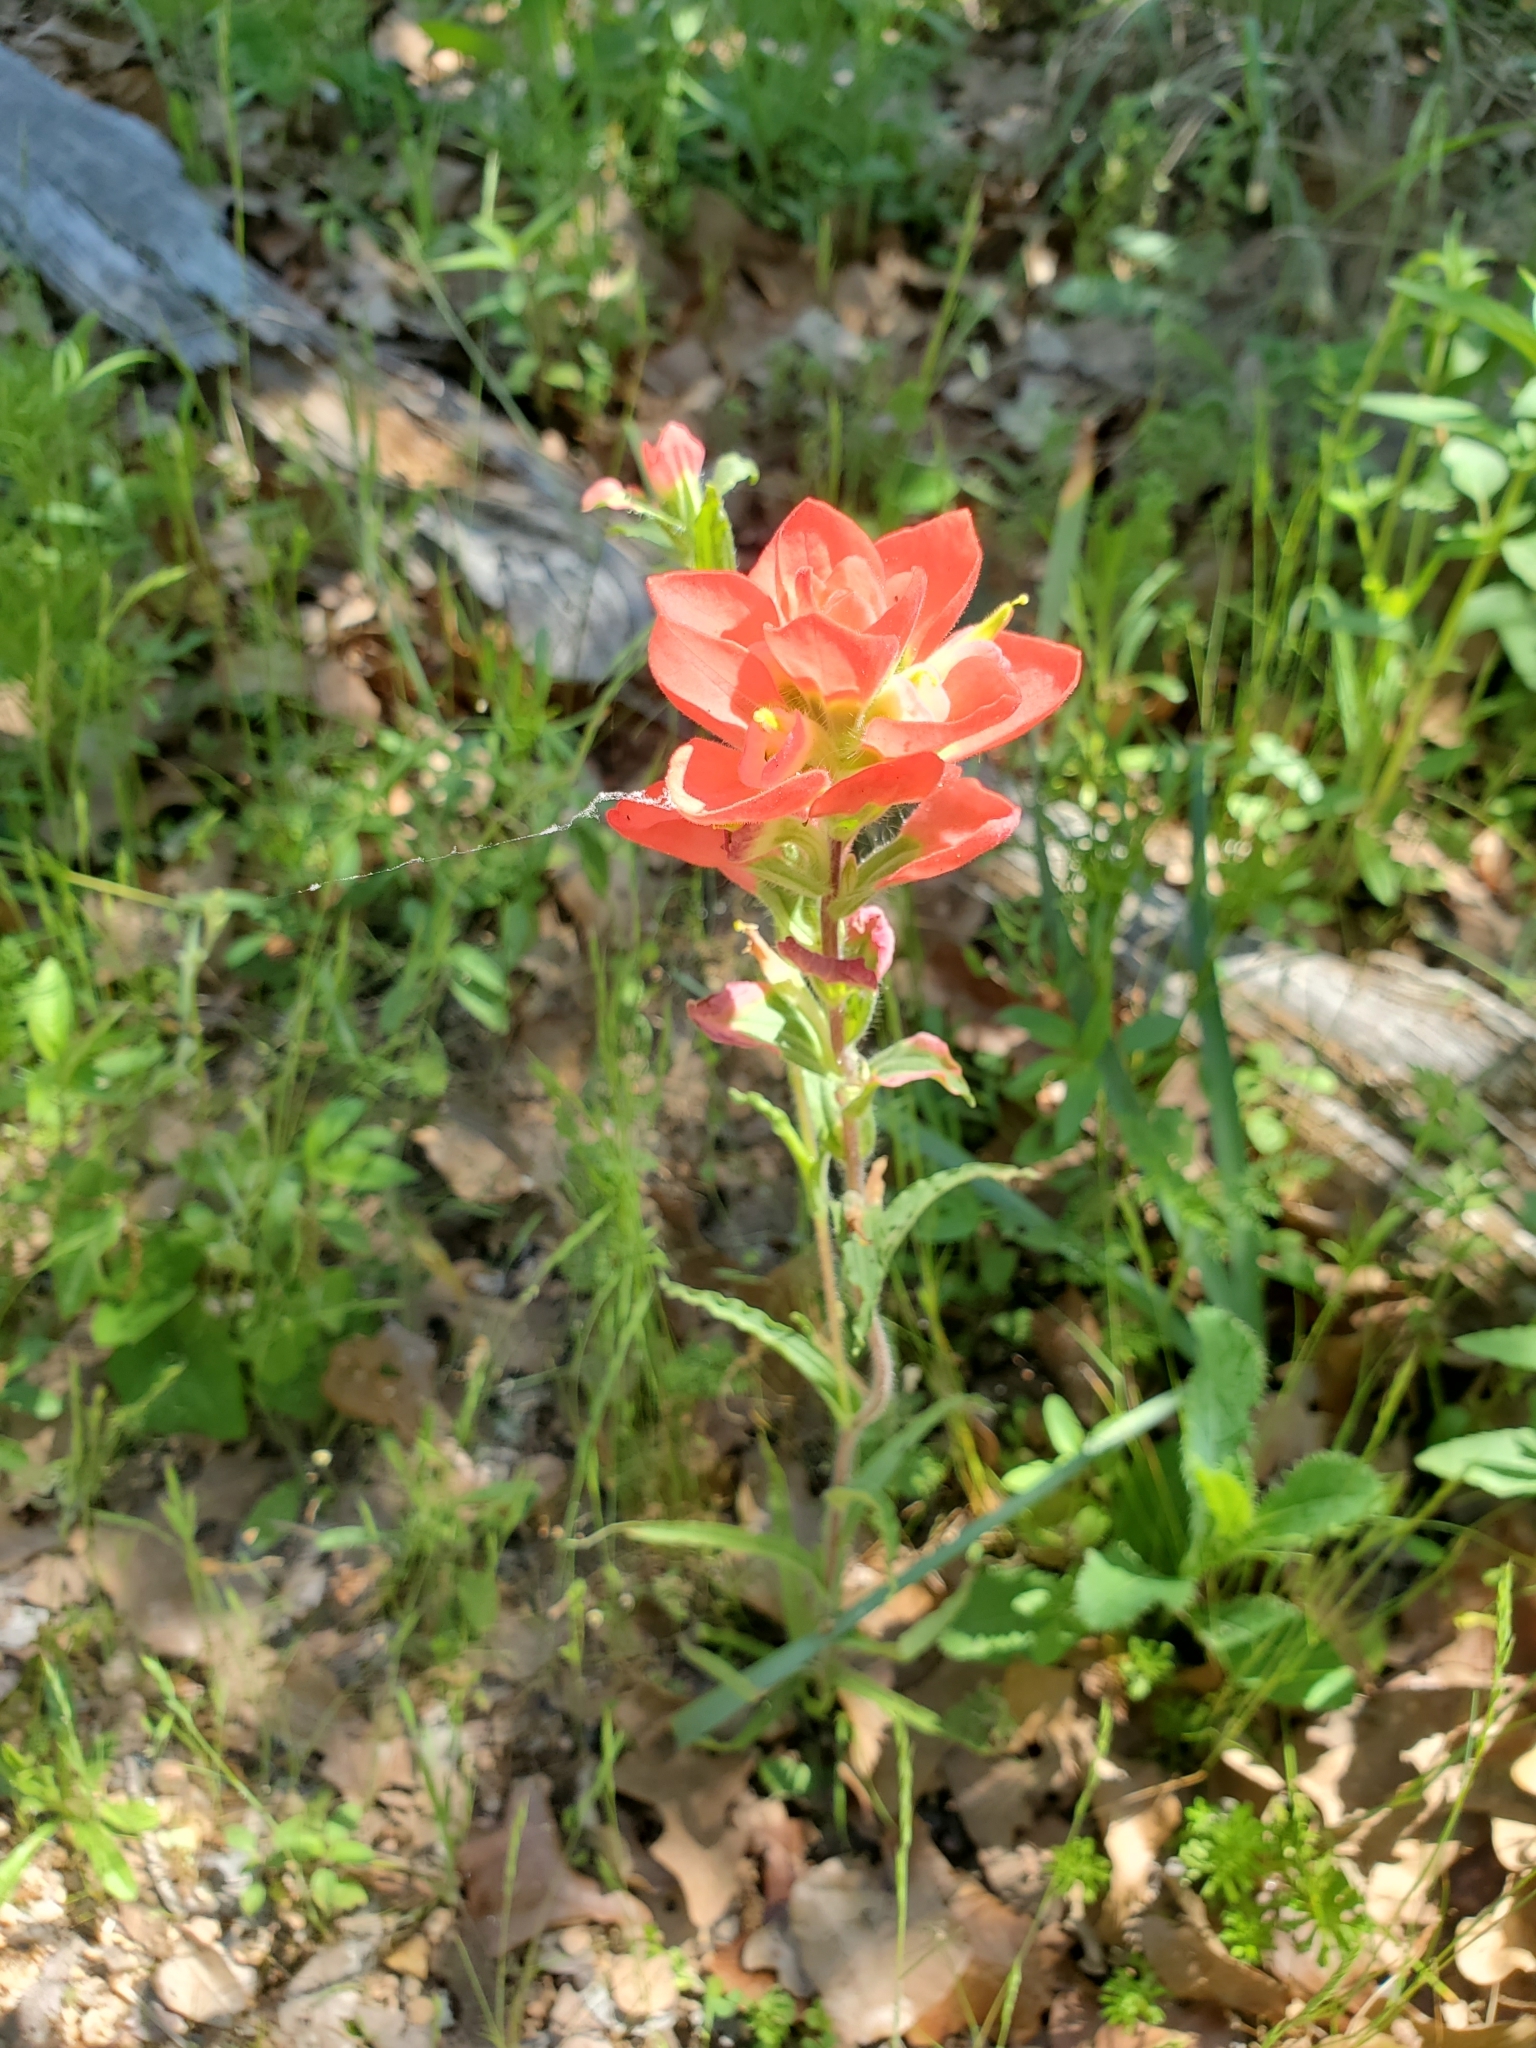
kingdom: Plantae
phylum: Tracheophyta
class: Magnoliopsida
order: Lamiales
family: Orobanchaceae
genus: Castilleja
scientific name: Castilleja indivisa
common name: Texas paintbrush
